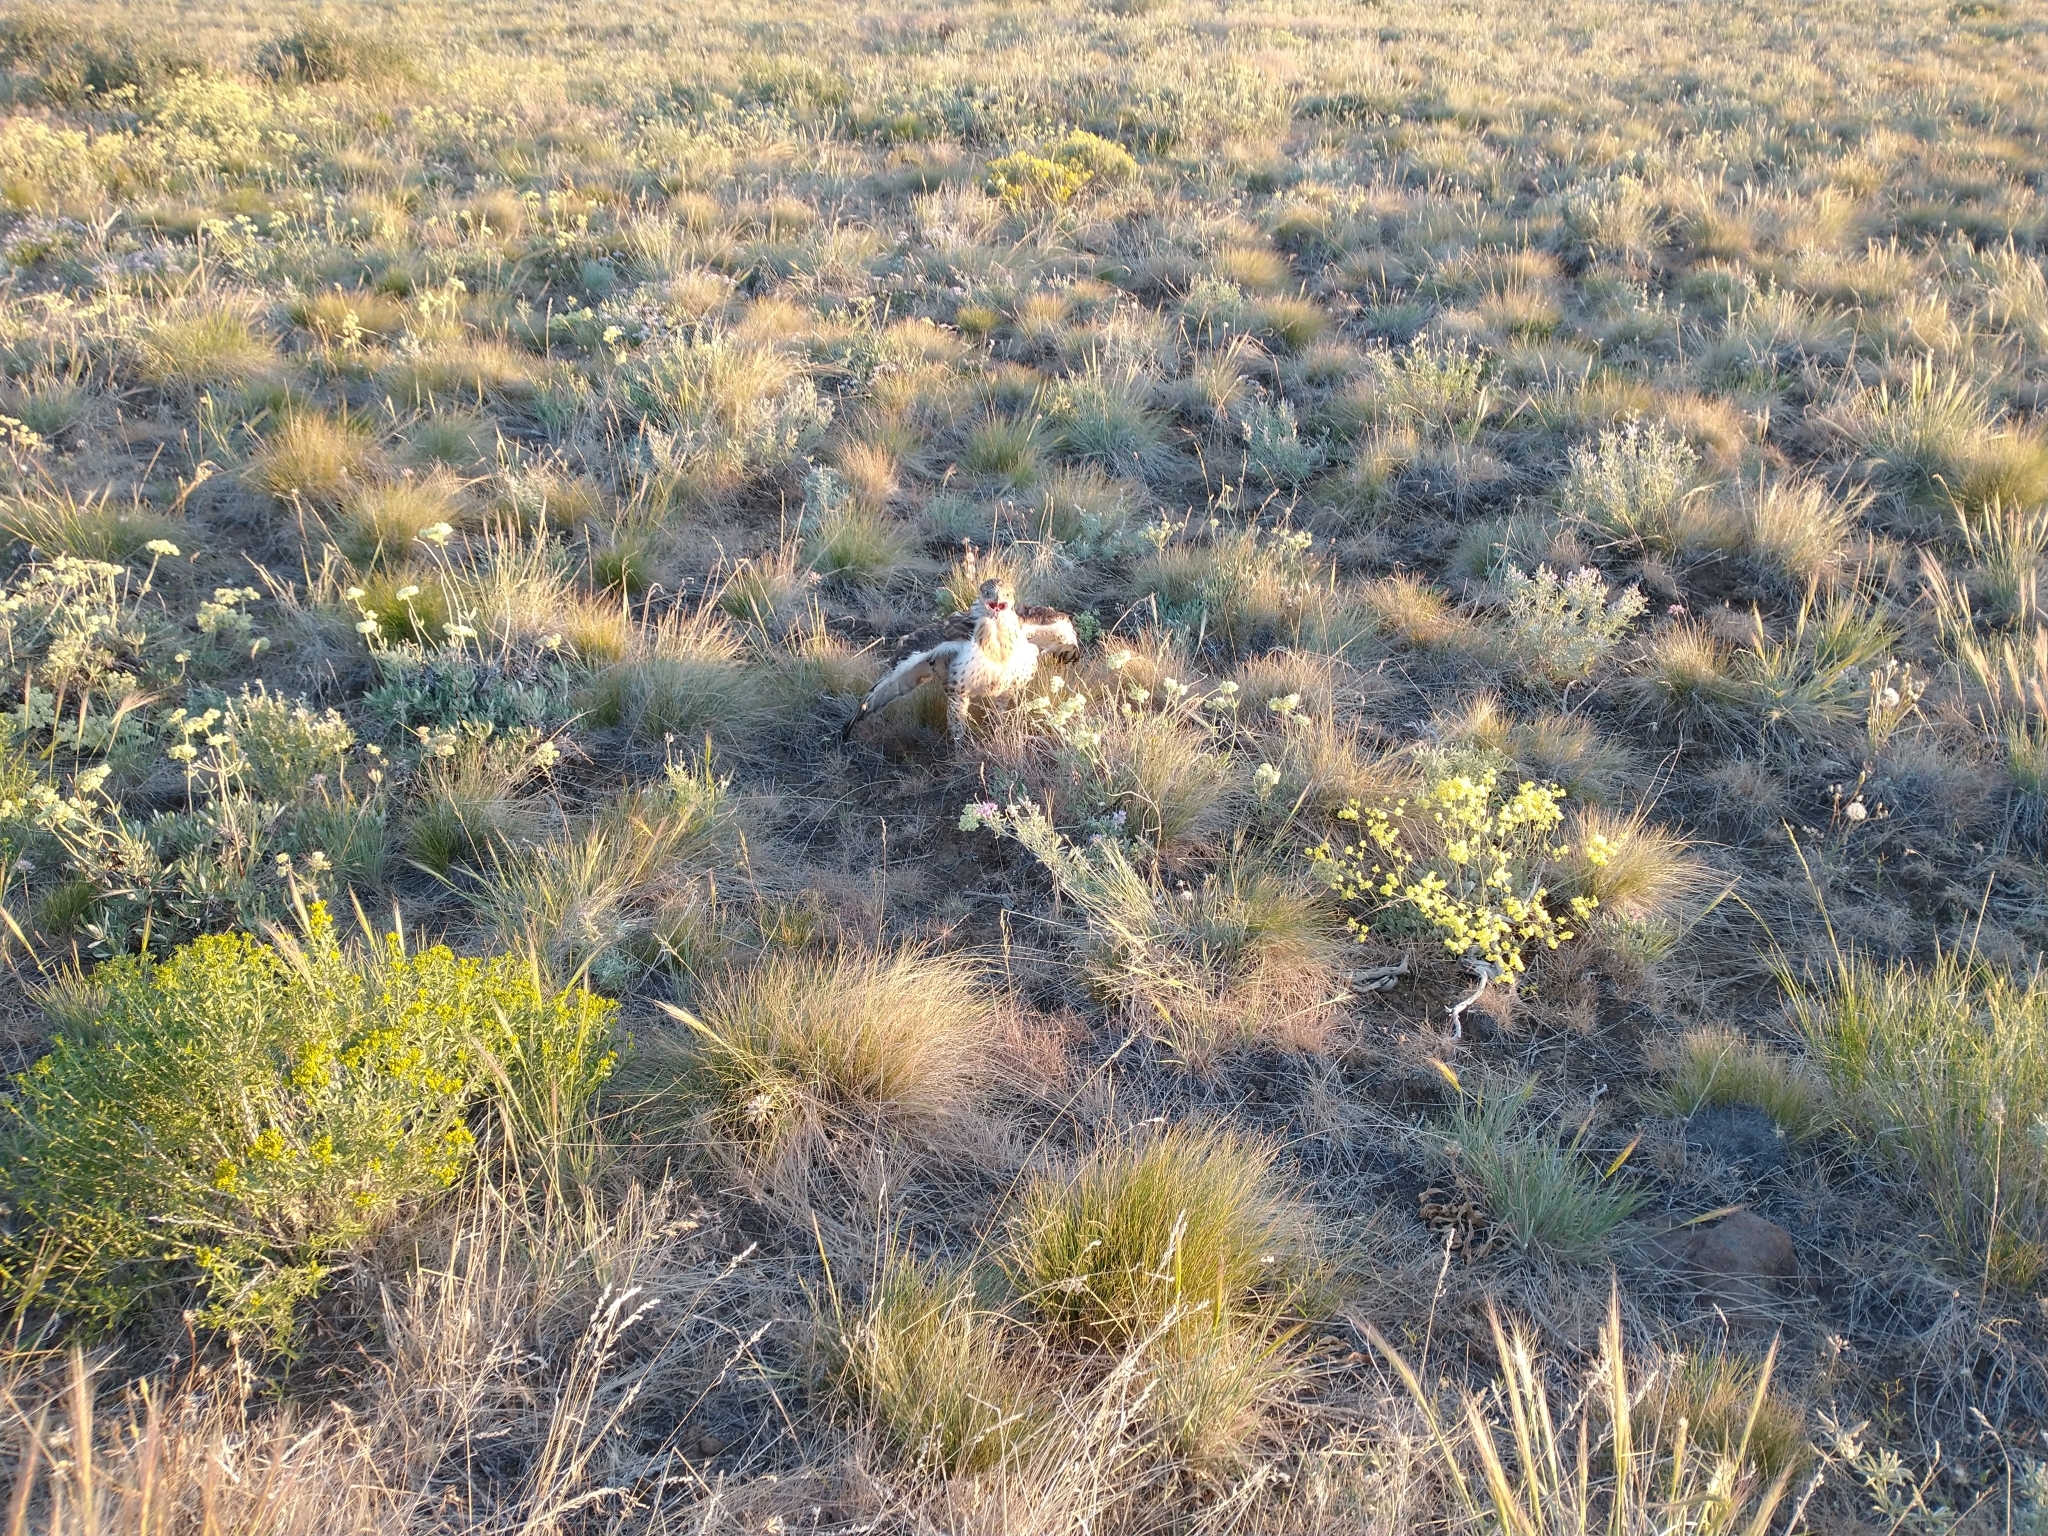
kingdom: Animalia
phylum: Chordata
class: Aves
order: Accipitriformes
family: Accipitridae
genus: Buteo
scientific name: Buteo regalis
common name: Ferruginous hawk
